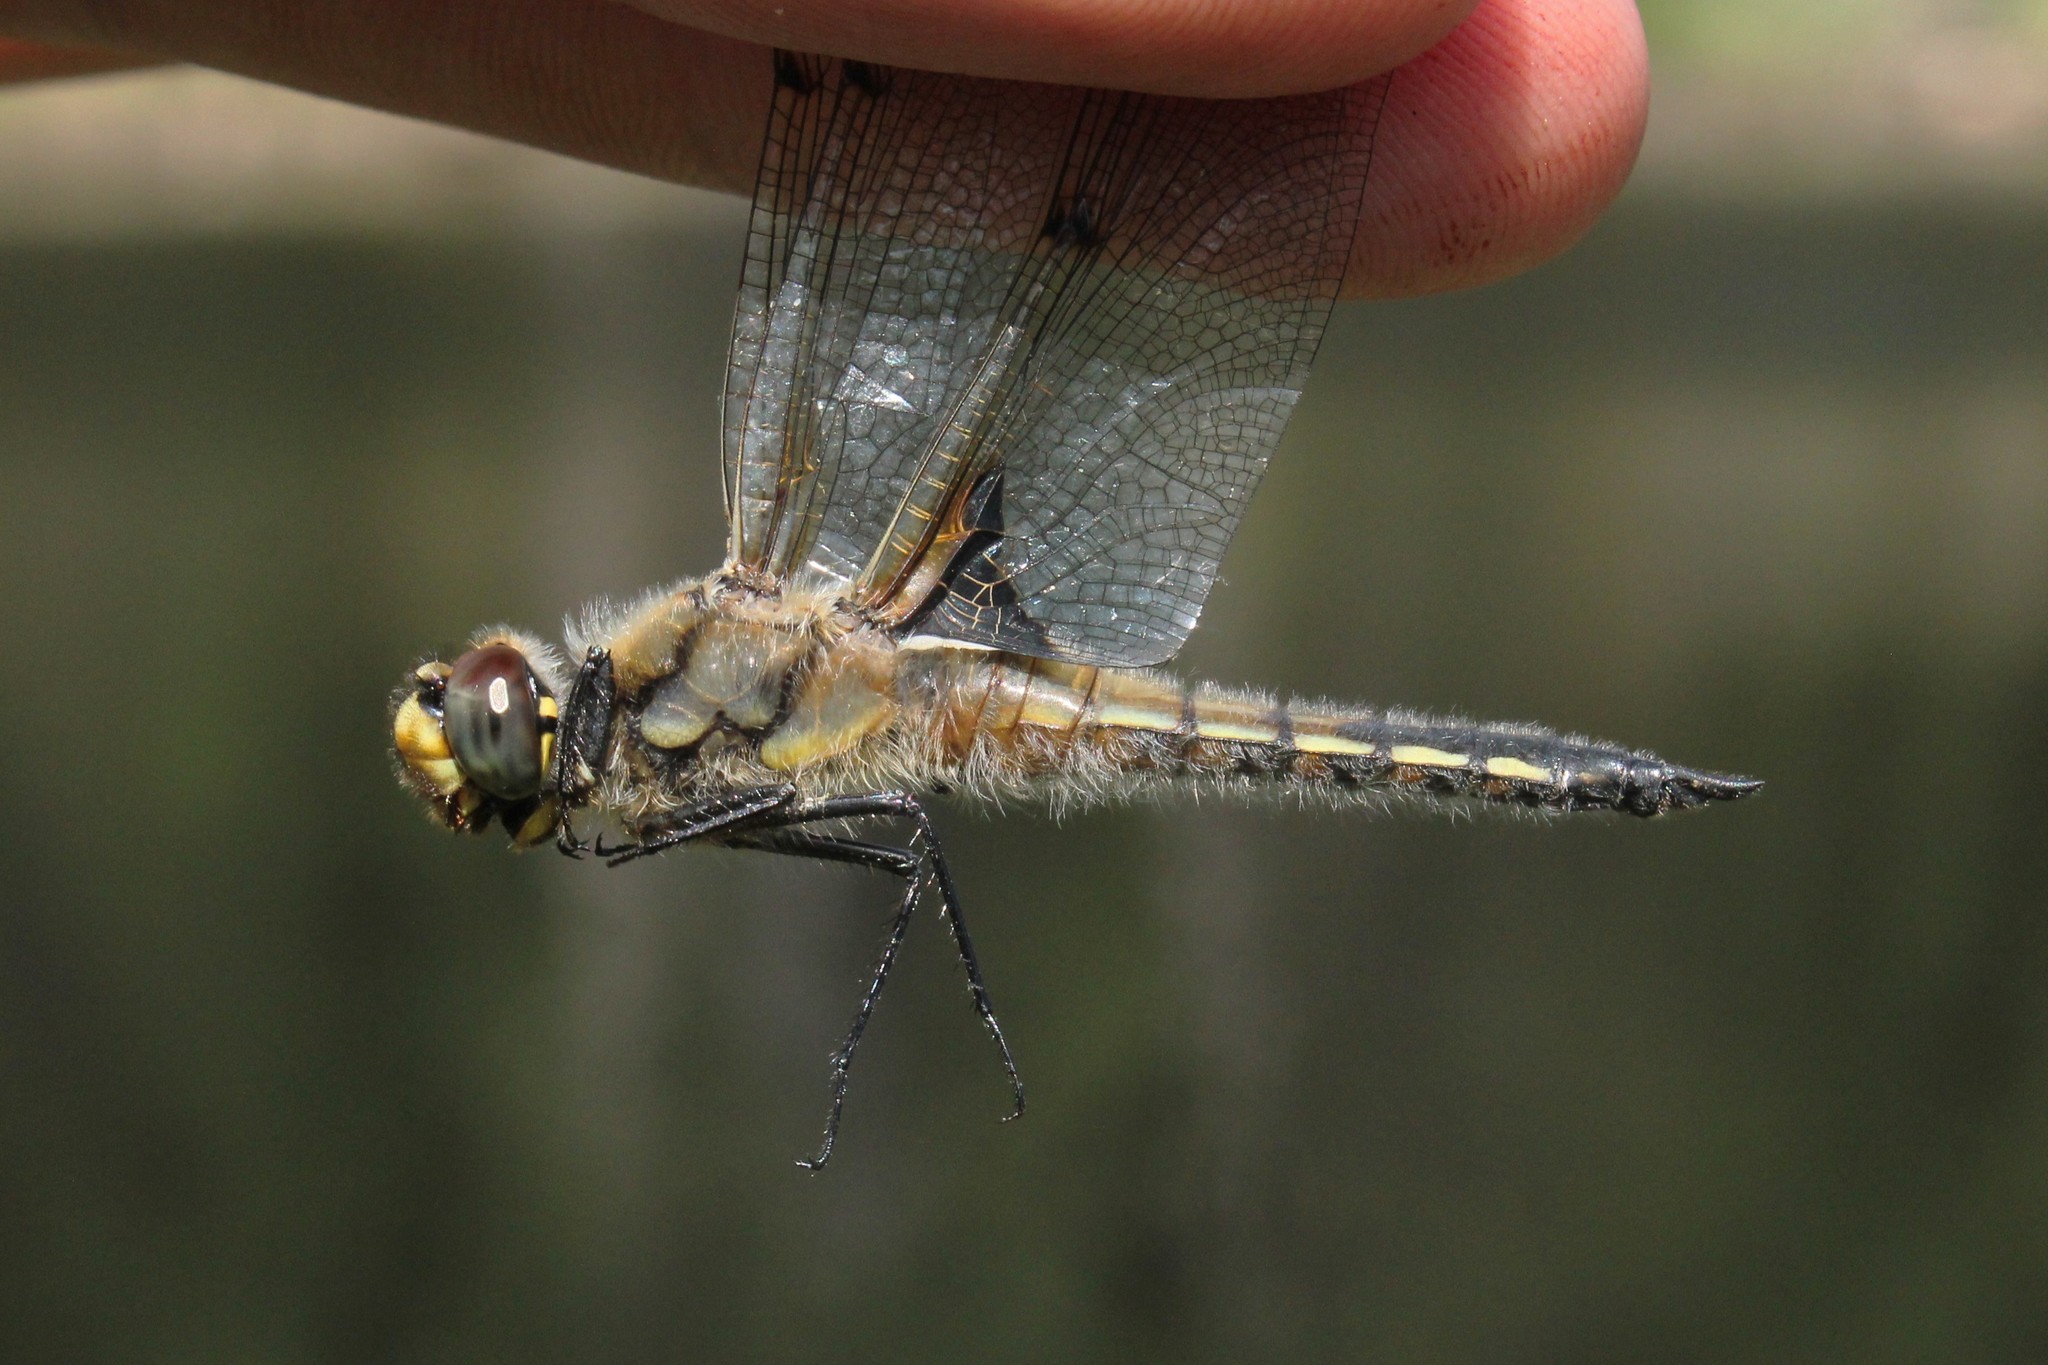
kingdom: Animalia
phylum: Arthropoda
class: Insecta
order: Odonata
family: Libellulidae
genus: Libellula
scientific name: Libellula quadrimaculata
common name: Four-spotted chaser
